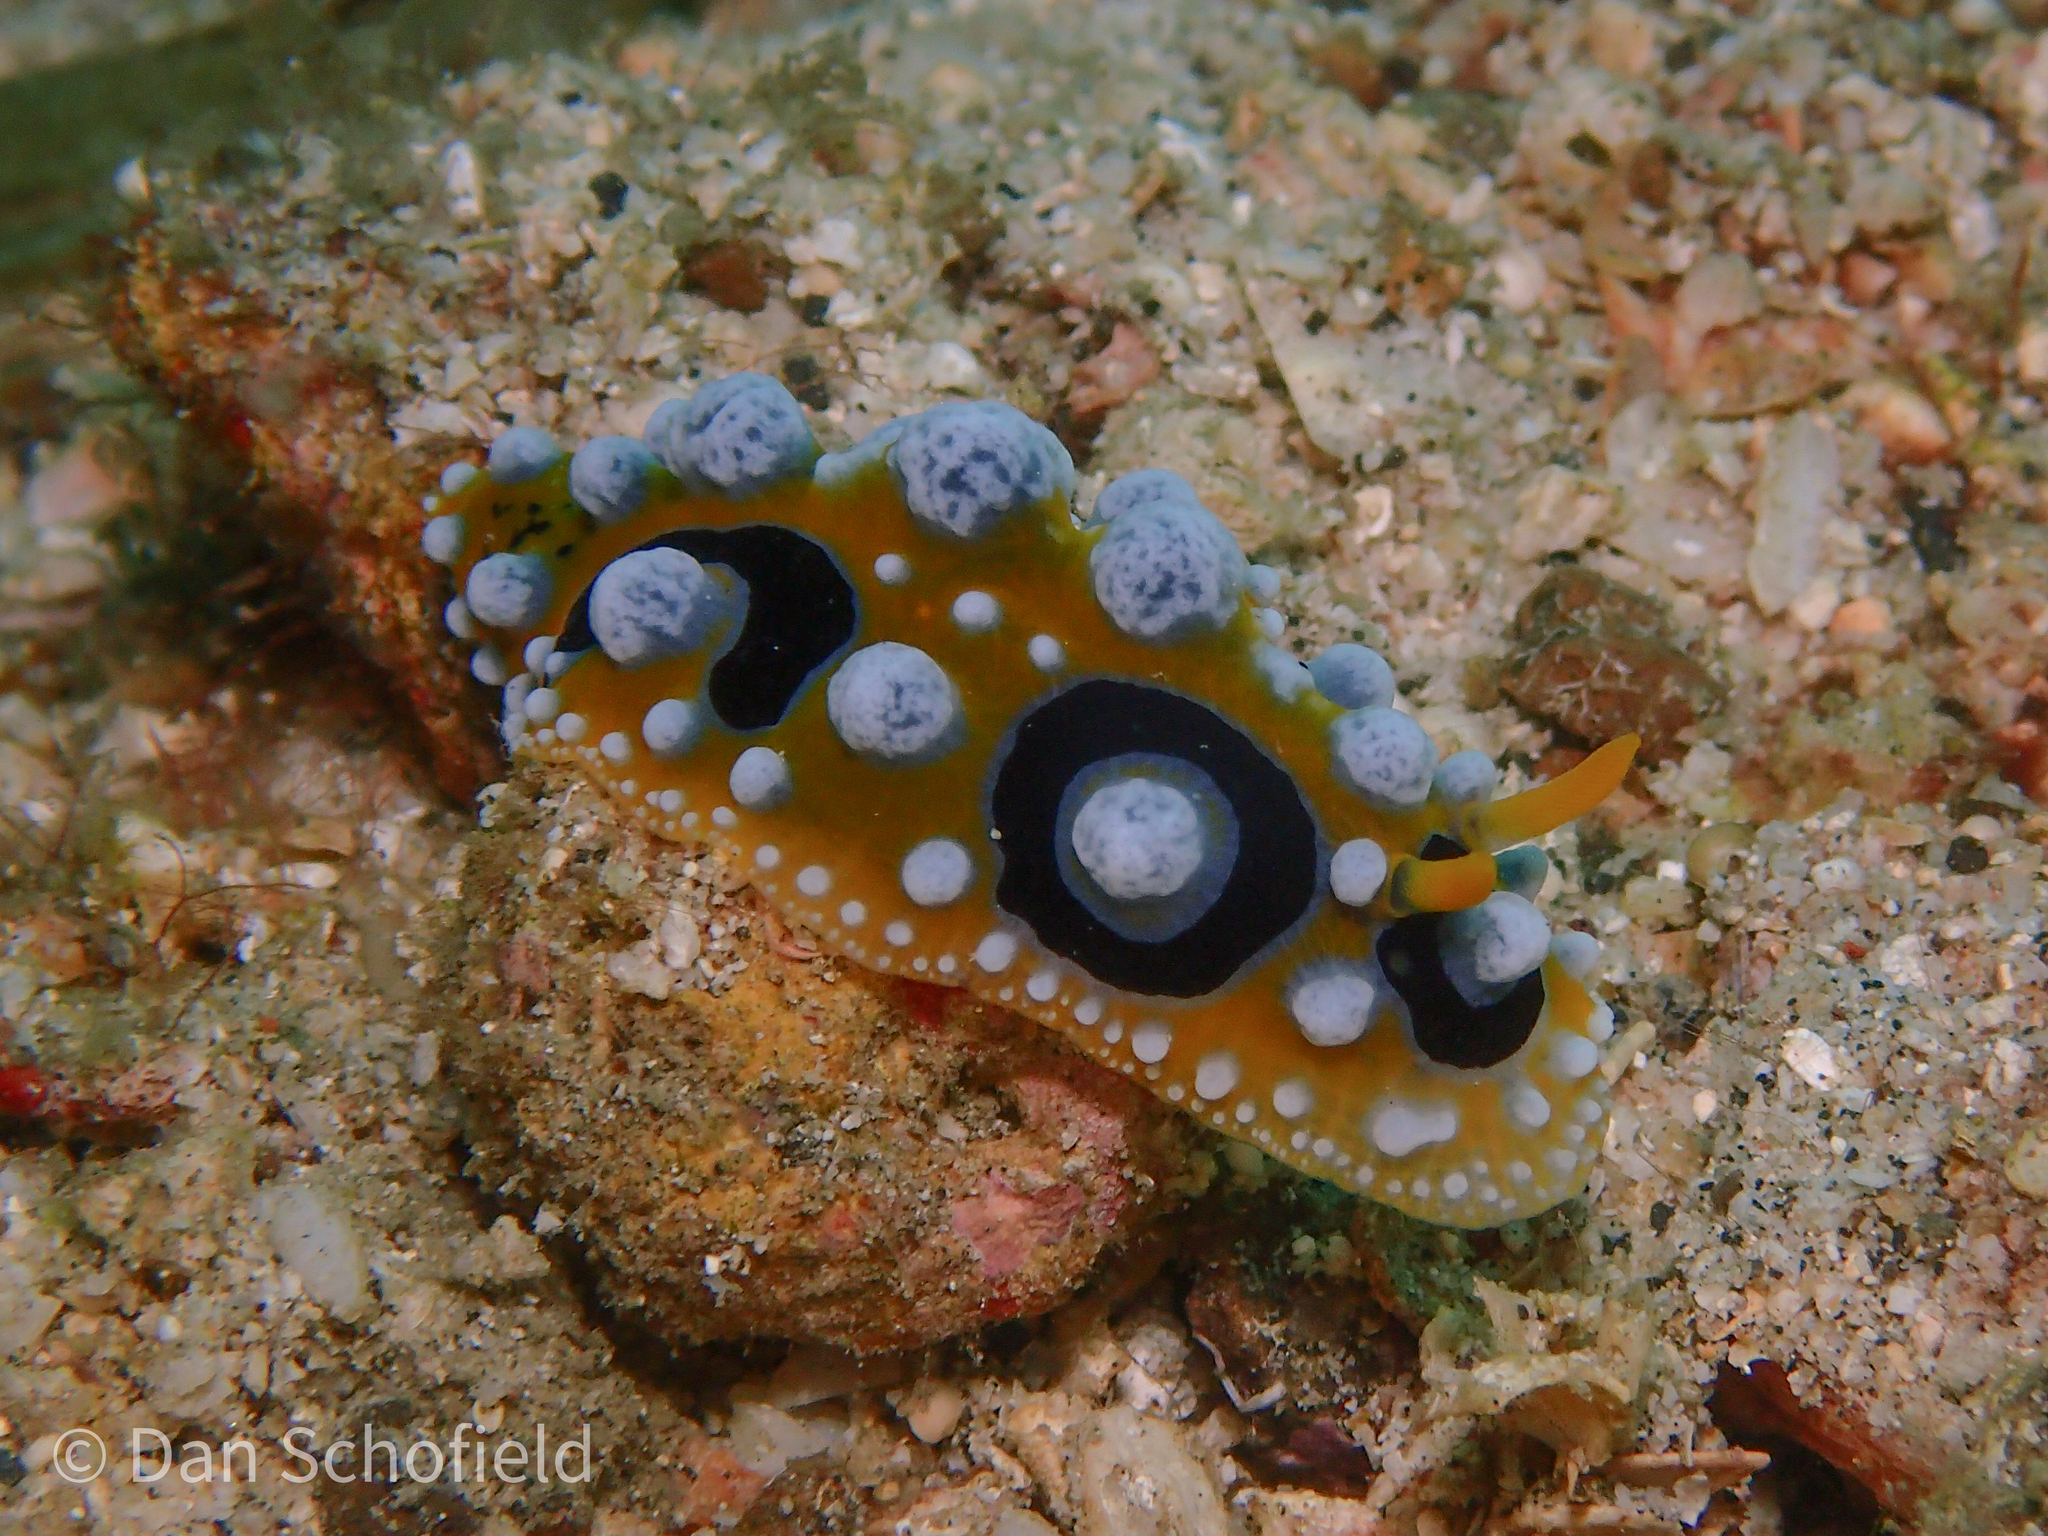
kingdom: Animalia
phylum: Mollusca
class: Gastropoda
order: Nudibranchia
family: Phyllidiidae
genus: Phyllidia
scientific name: Phyllidia ocellata
